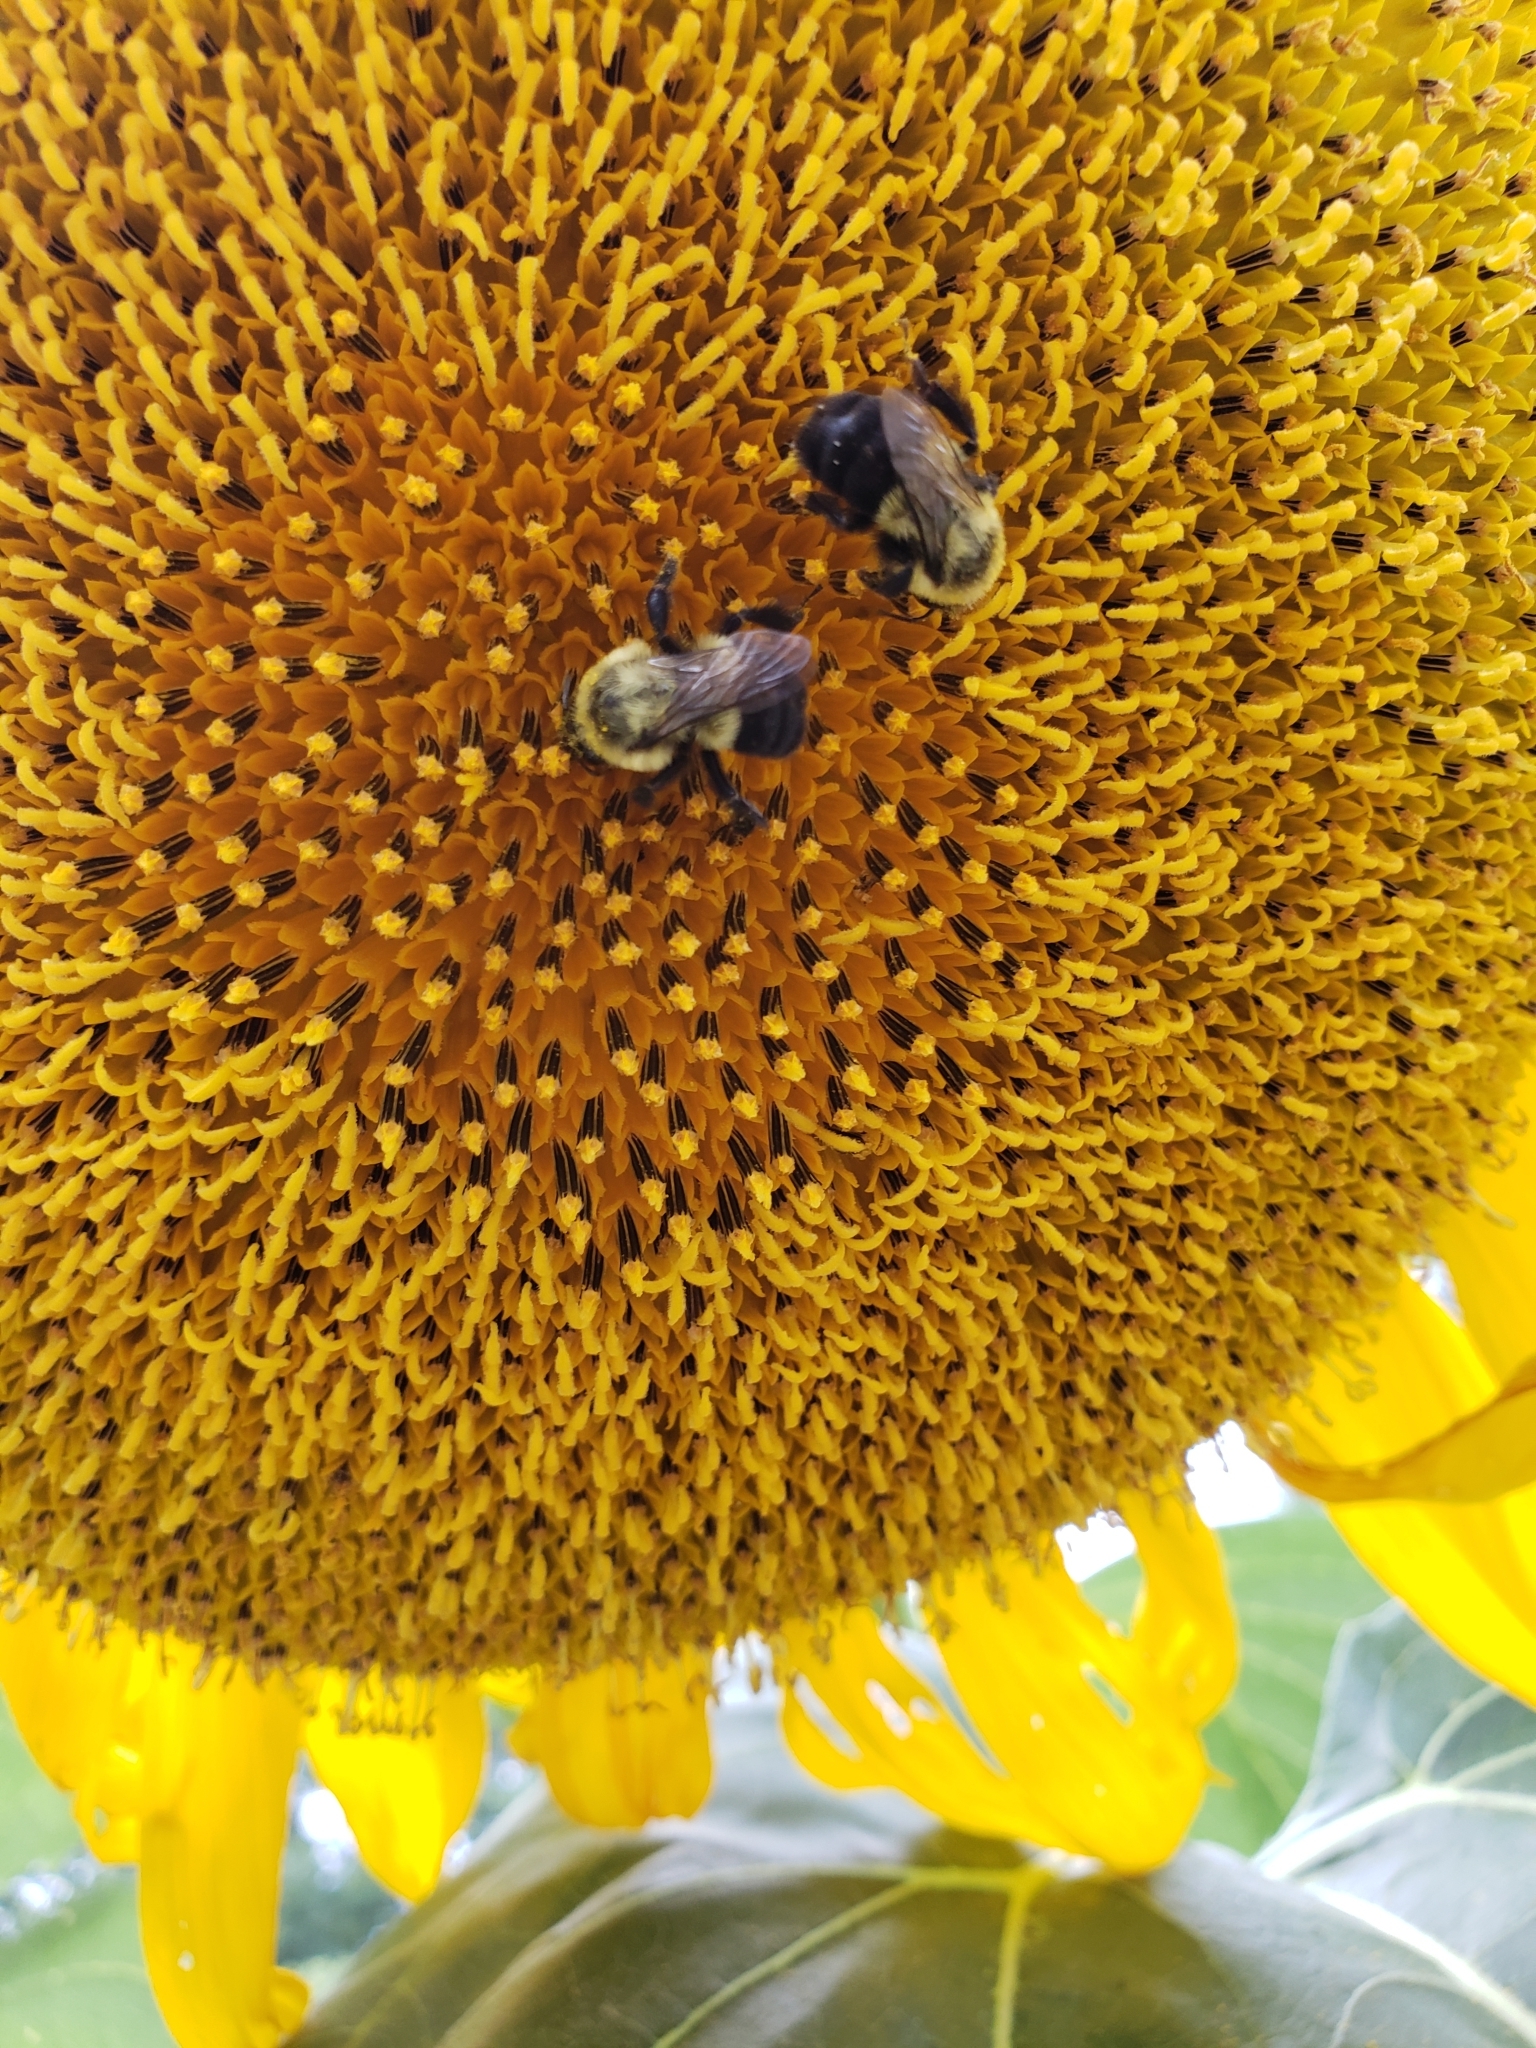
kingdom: Animalia
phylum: Arthropoda
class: Insecta
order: Hymenoptera
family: Apidae
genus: Bombus
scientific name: Bombus impatiens
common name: Common eastern bumble bee
